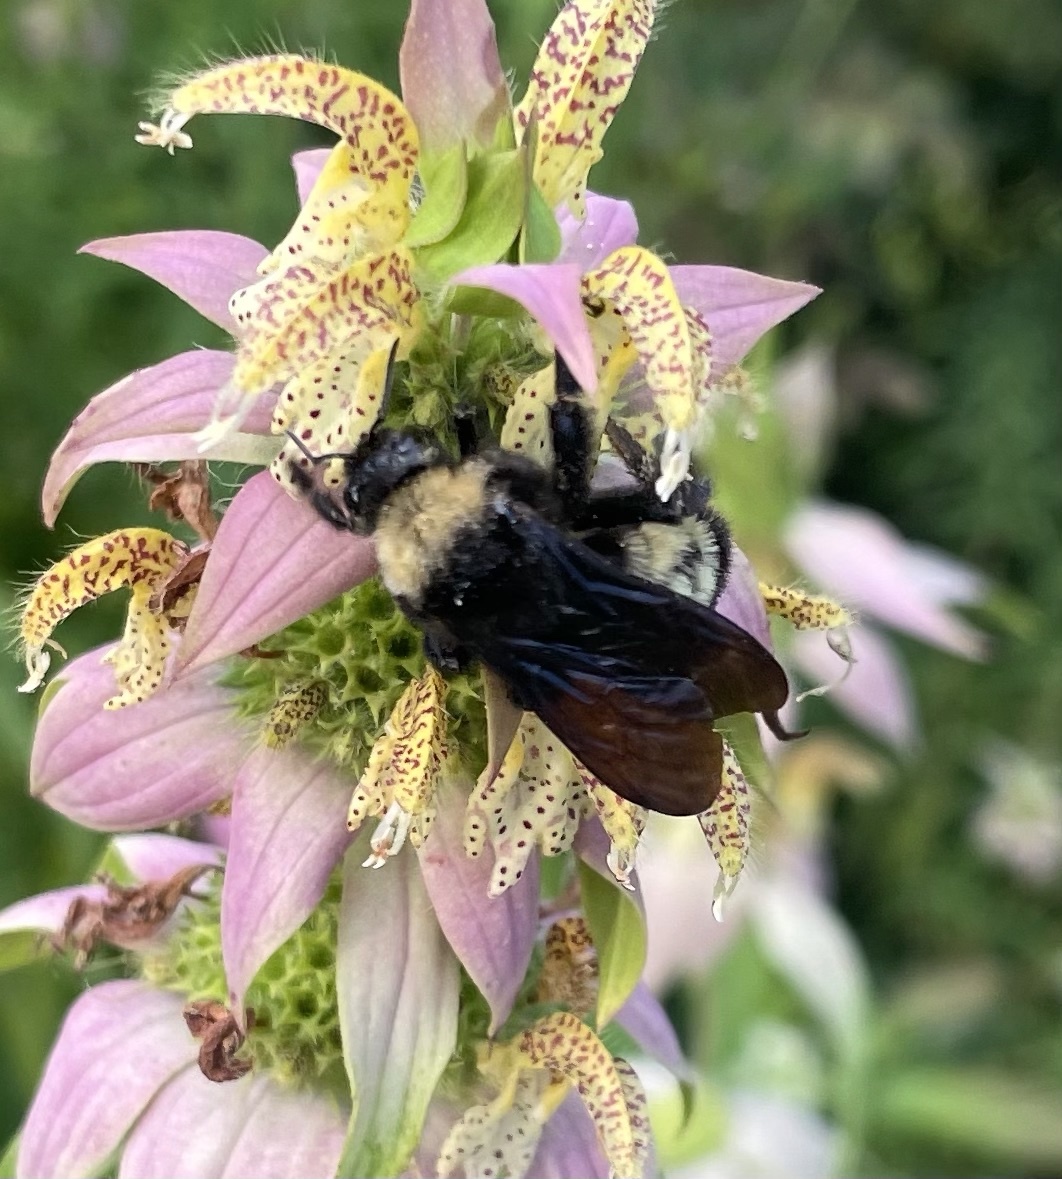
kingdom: Animalia
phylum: Arthropoda
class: Insecta
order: Hymenoptera
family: Apidae
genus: Bombus
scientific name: Bombus pensylvanicus
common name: Bumble bee
